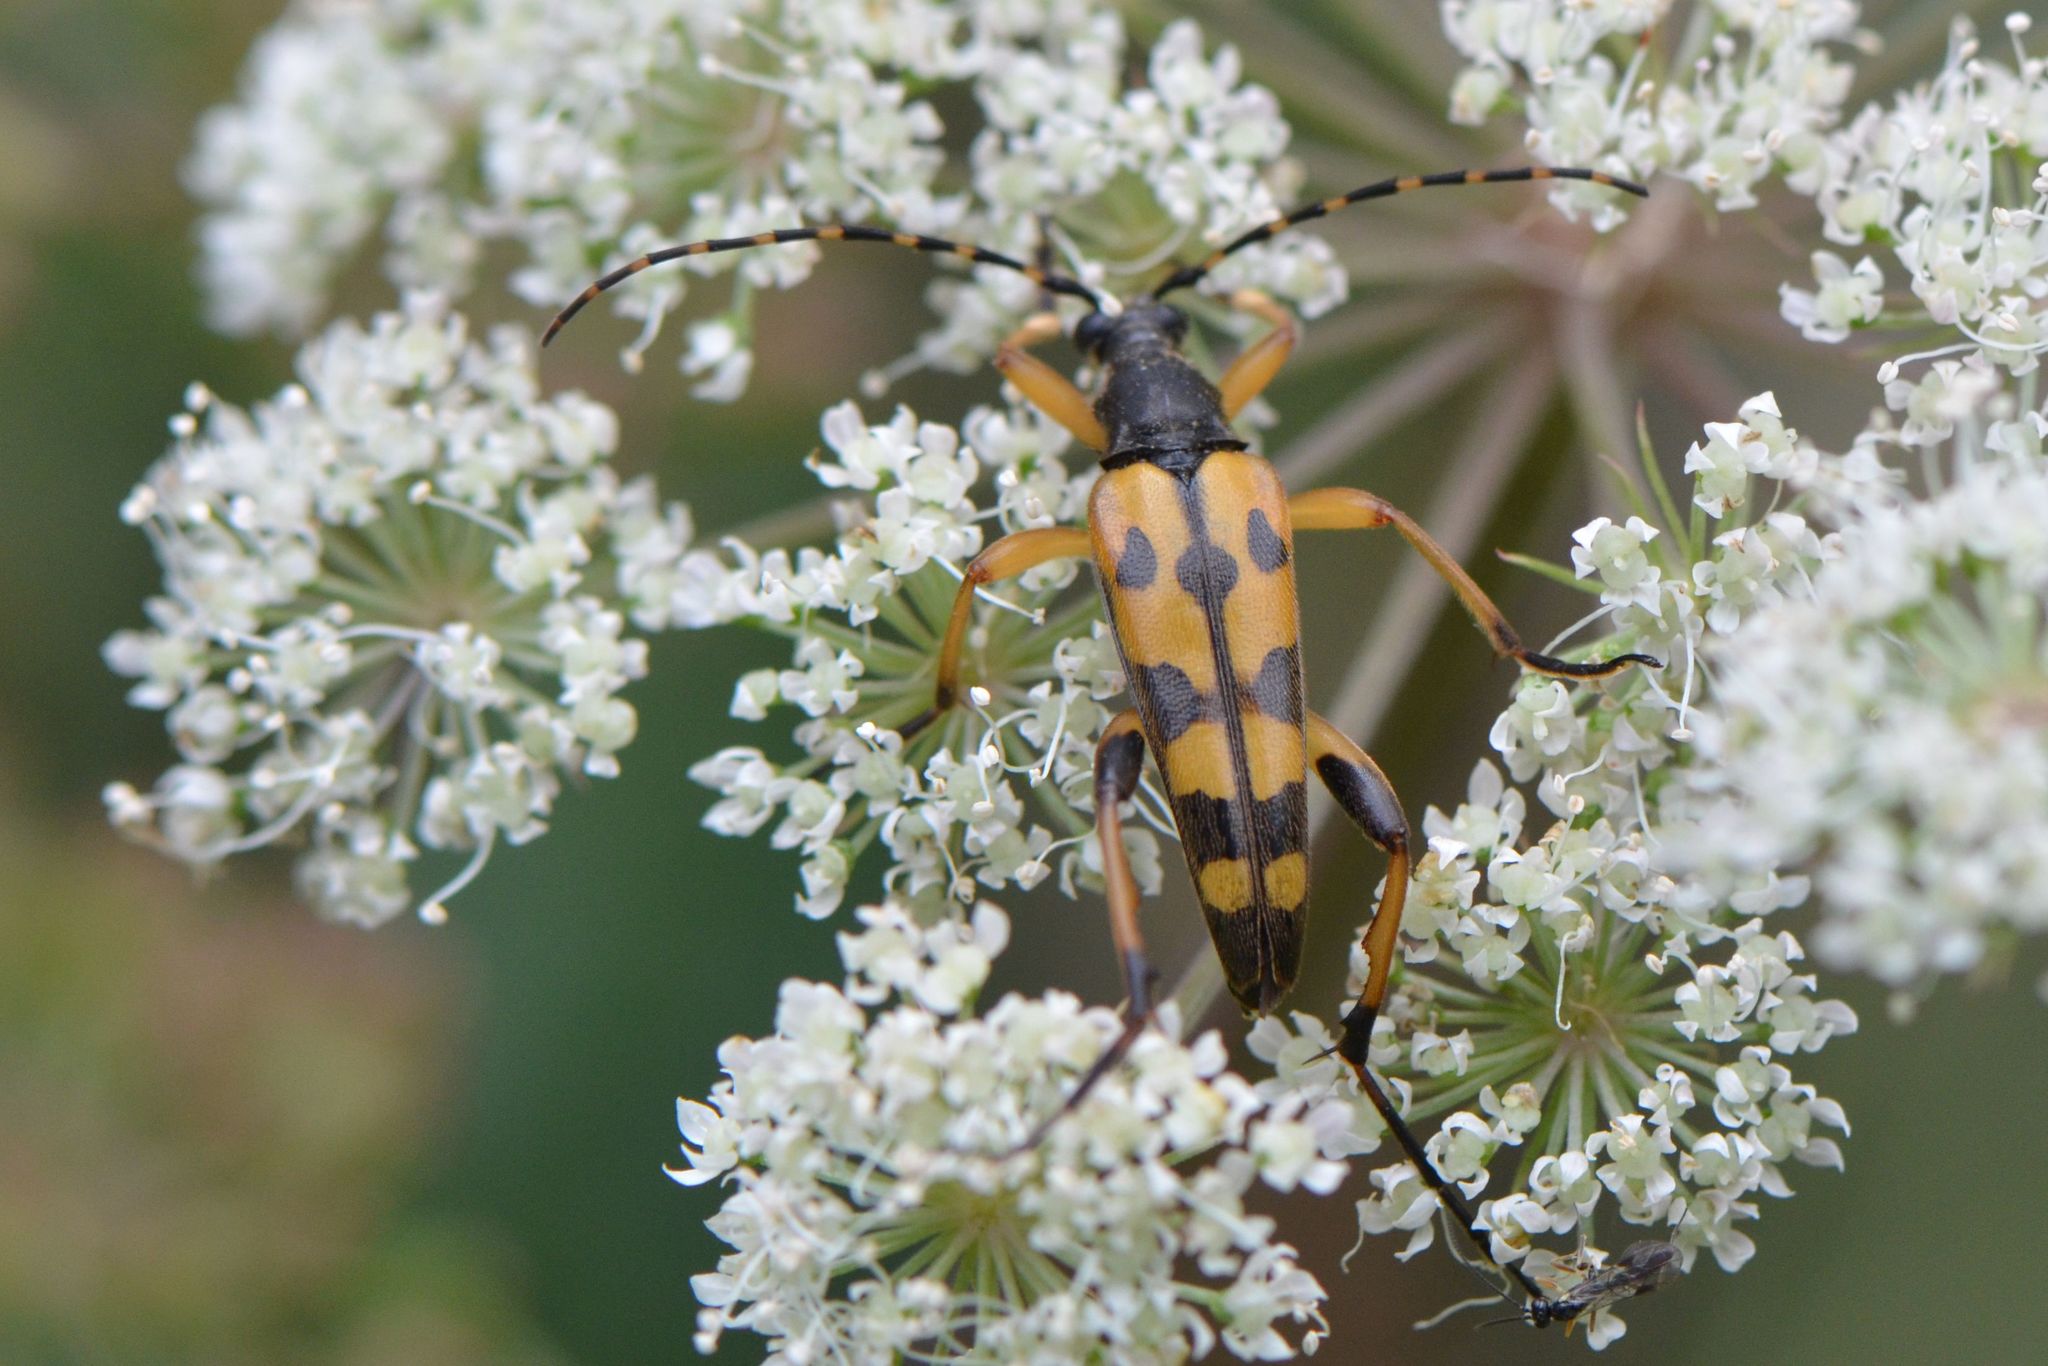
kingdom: Animalia
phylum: Arthropoda
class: Insecta
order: Coleoptera
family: Cerambycidae
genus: Rutpela
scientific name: Rutpela maculata
